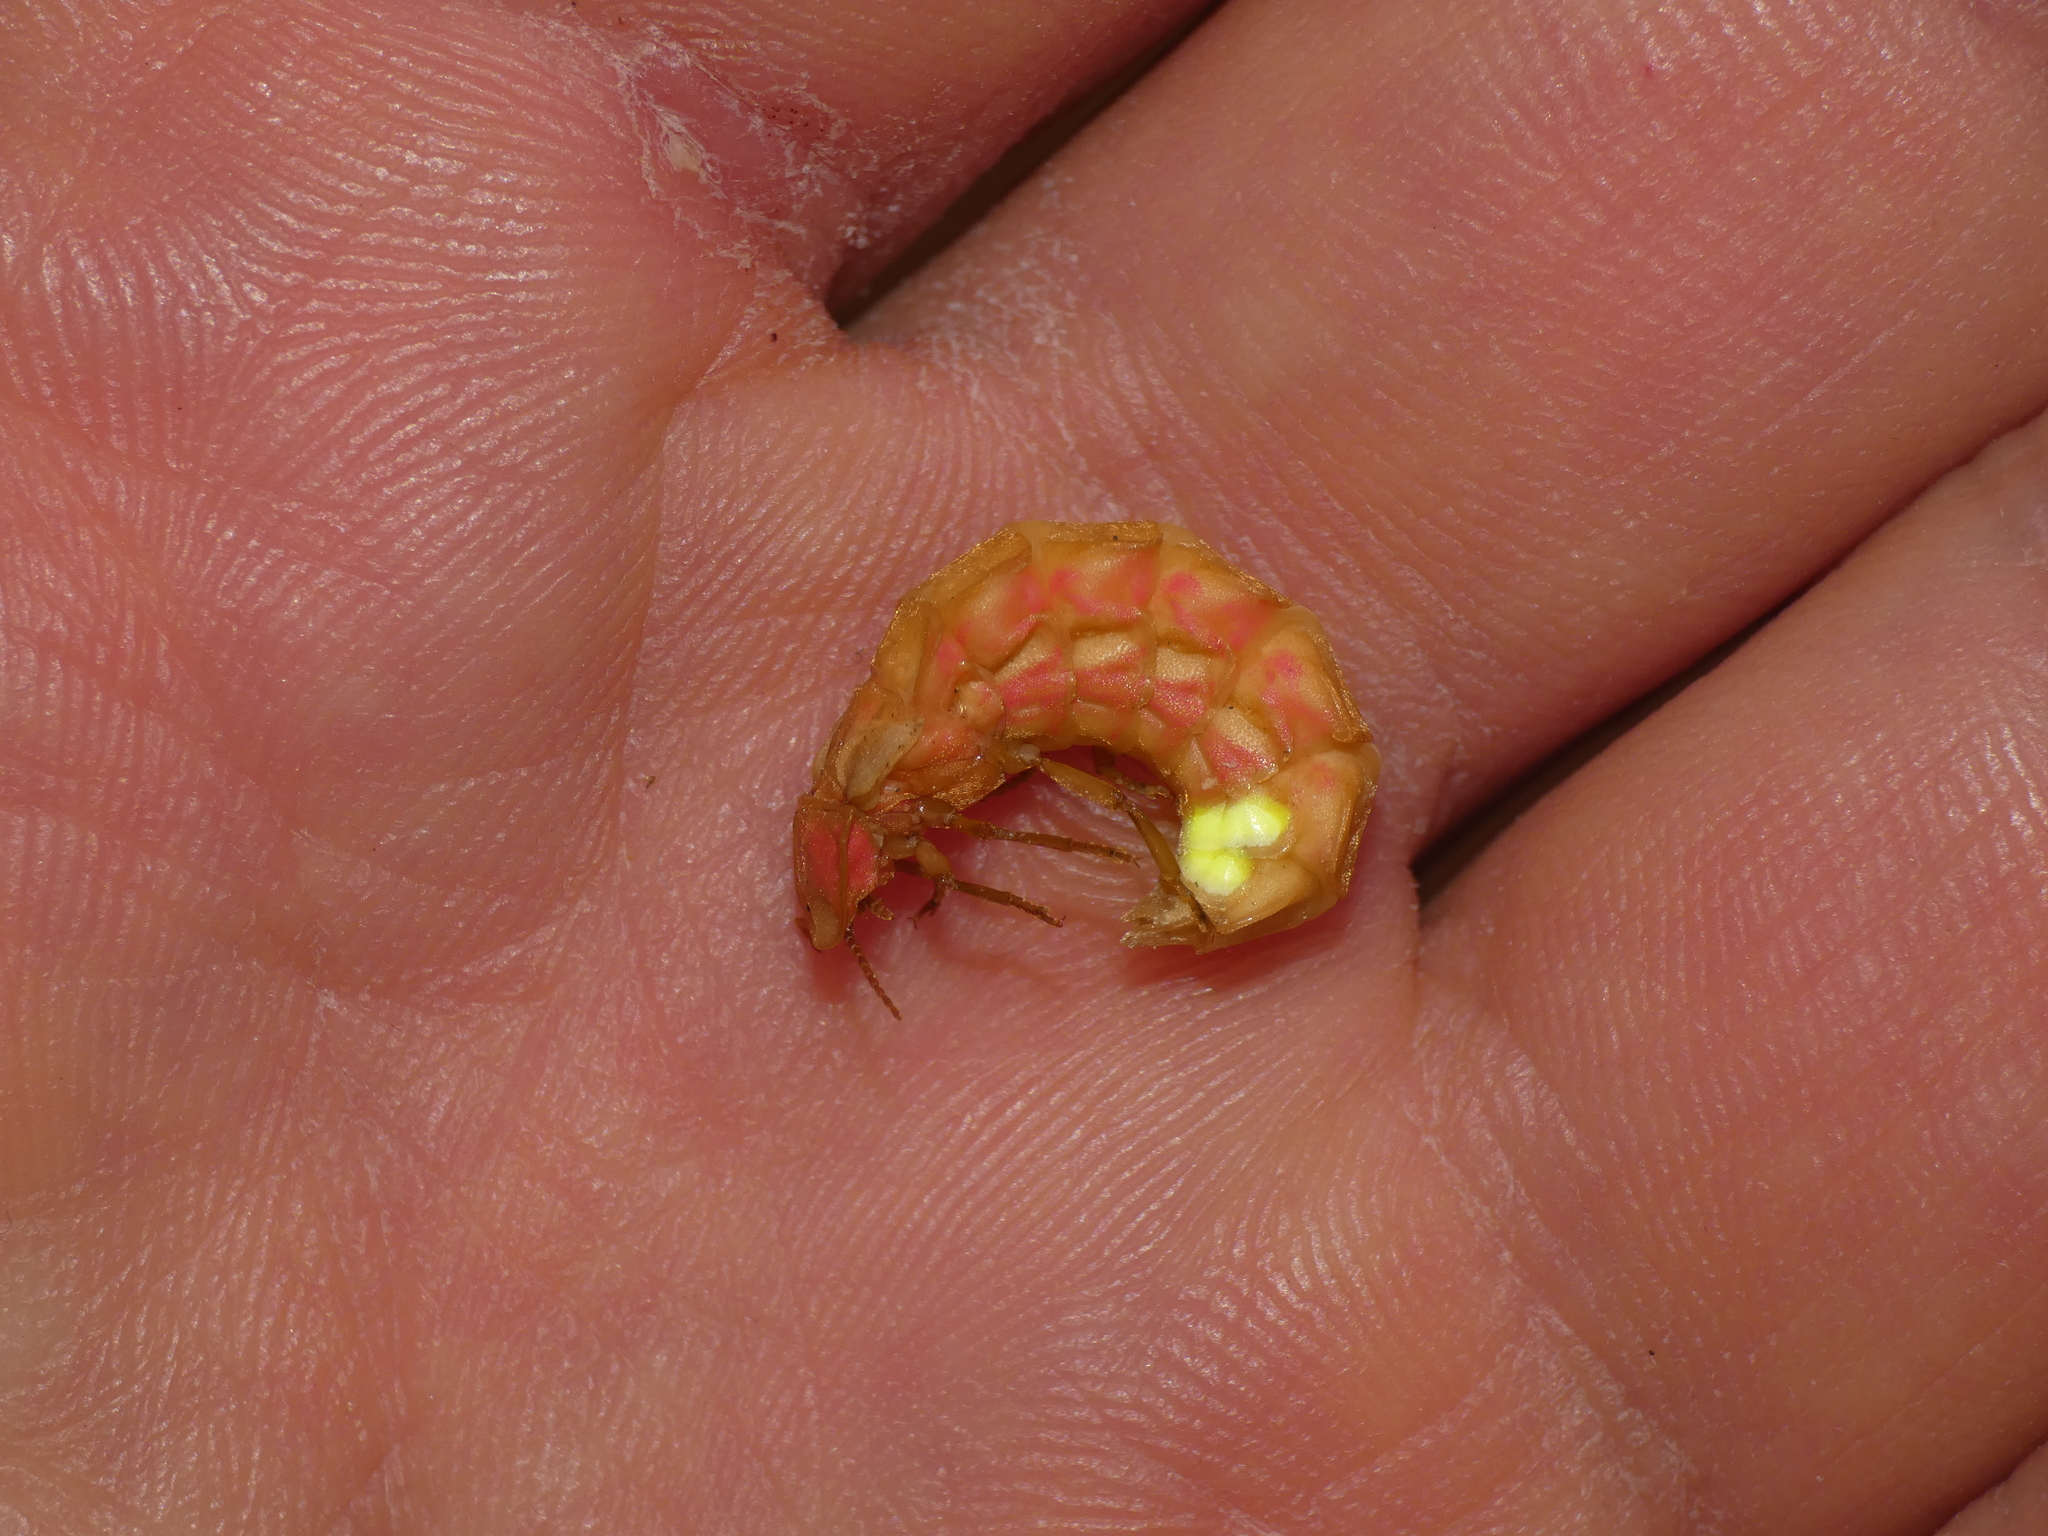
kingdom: Animalia
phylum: Arthropoda
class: Insecta
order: Coleoptera
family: Lampyridae
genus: Nyctophila
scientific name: Nyctophila reichii
